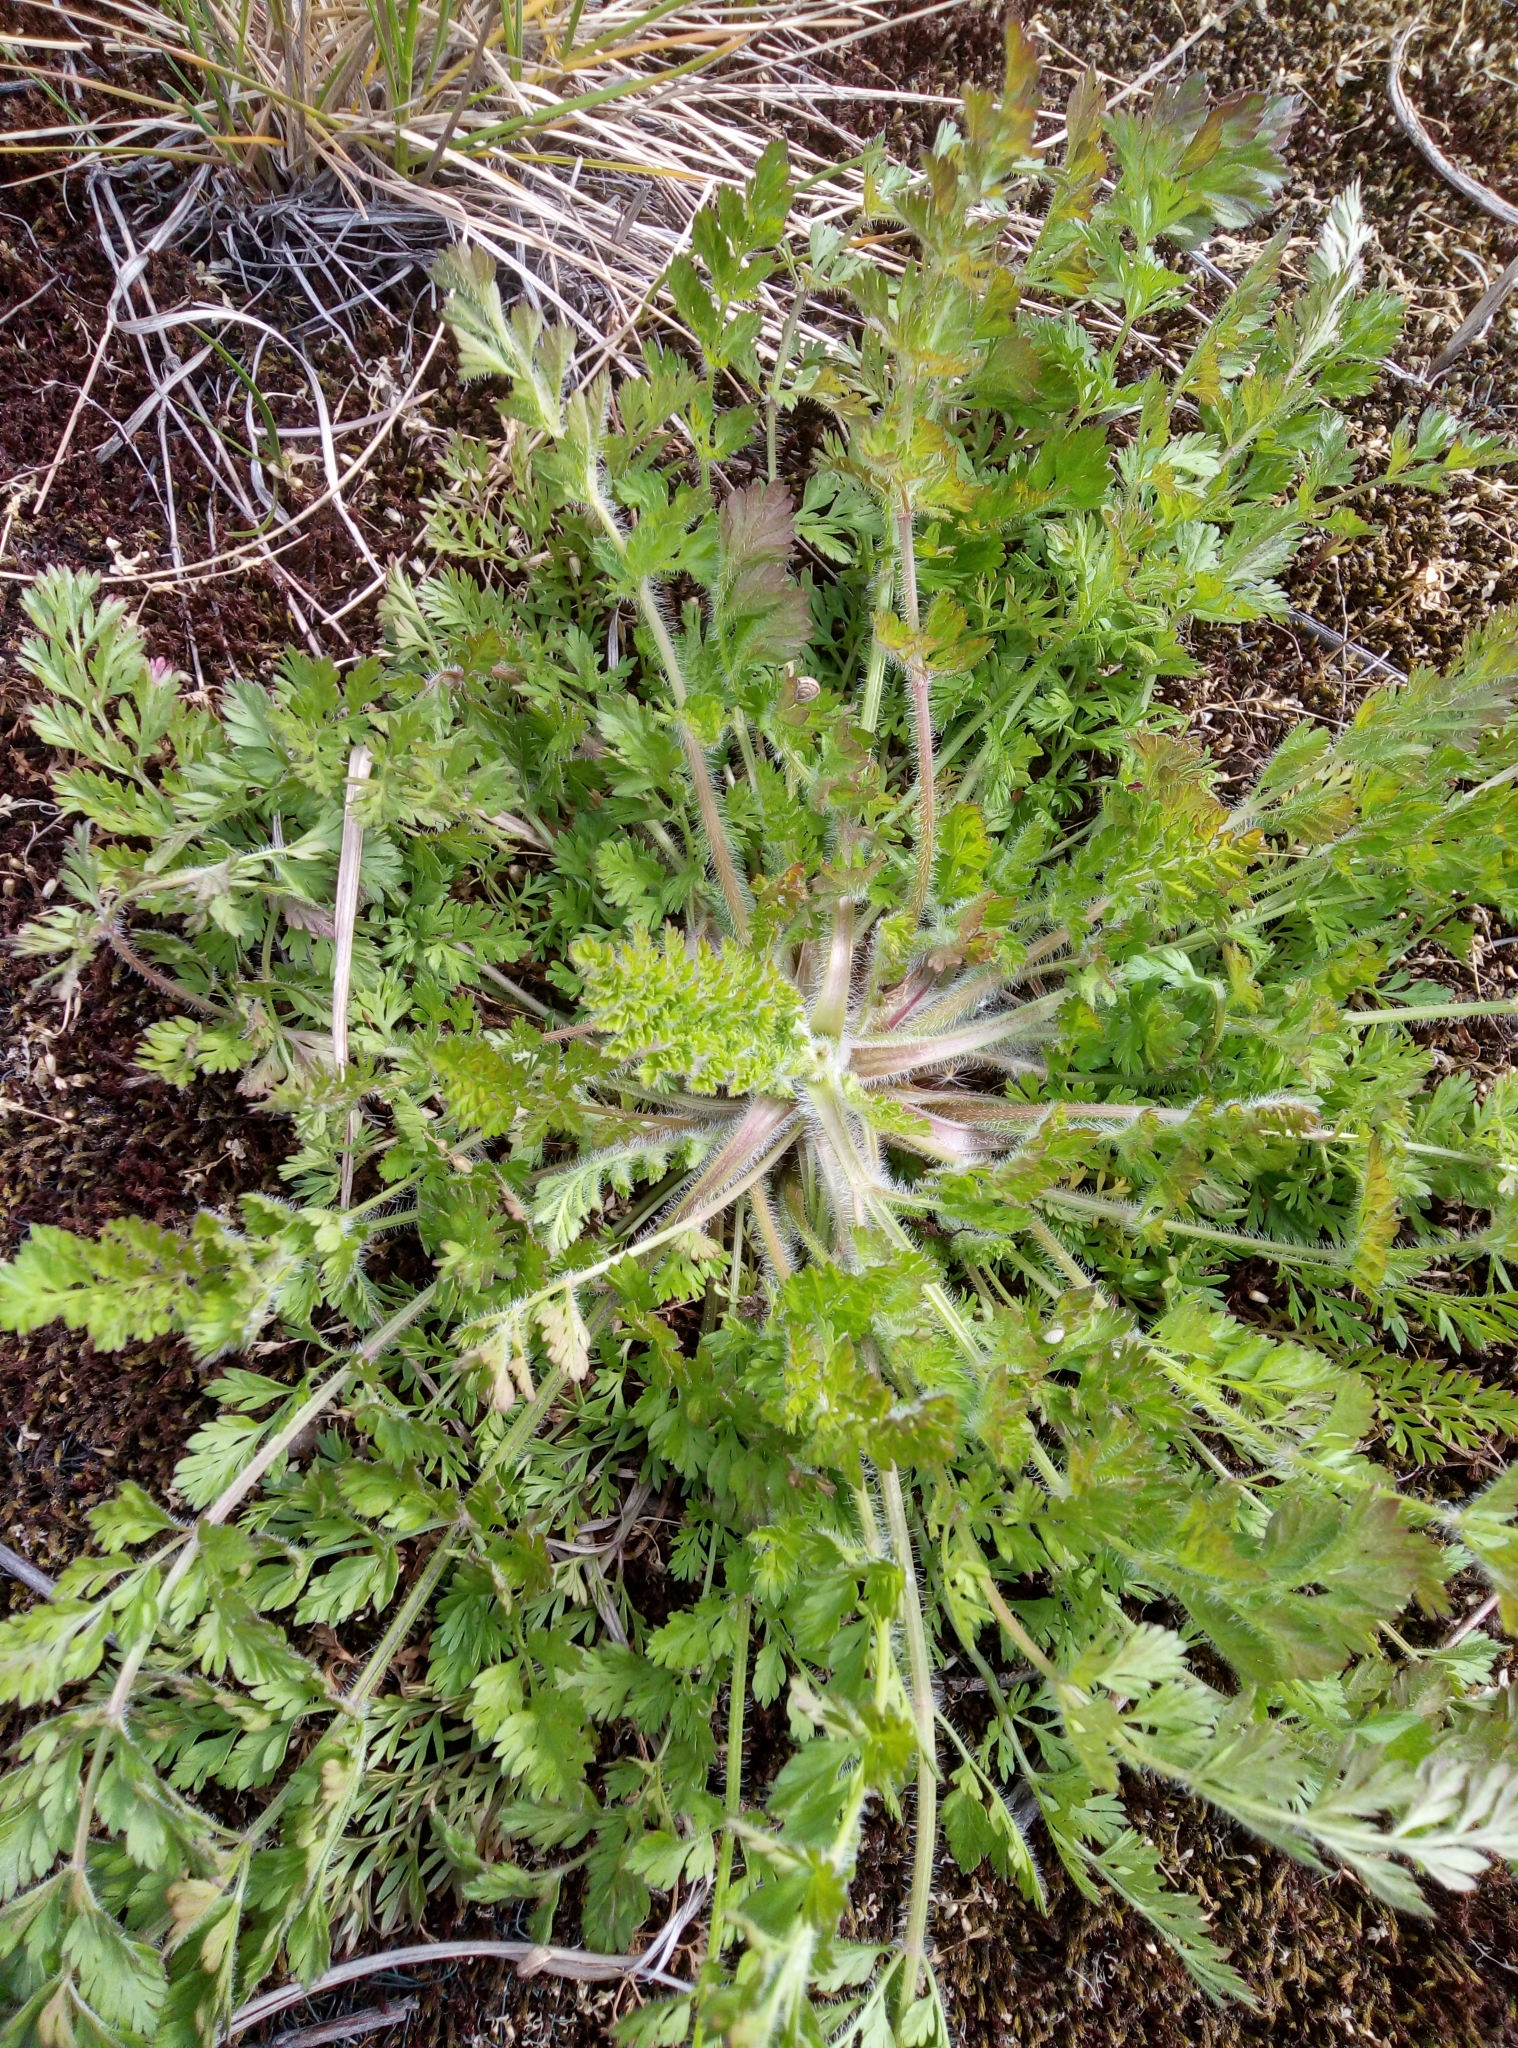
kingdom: Plantae
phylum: Tracheophyta
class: Magnoliopsida
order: Apiales
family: Apiaceae
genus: Daucus
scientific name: Daucus carota
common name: Wild carrot
